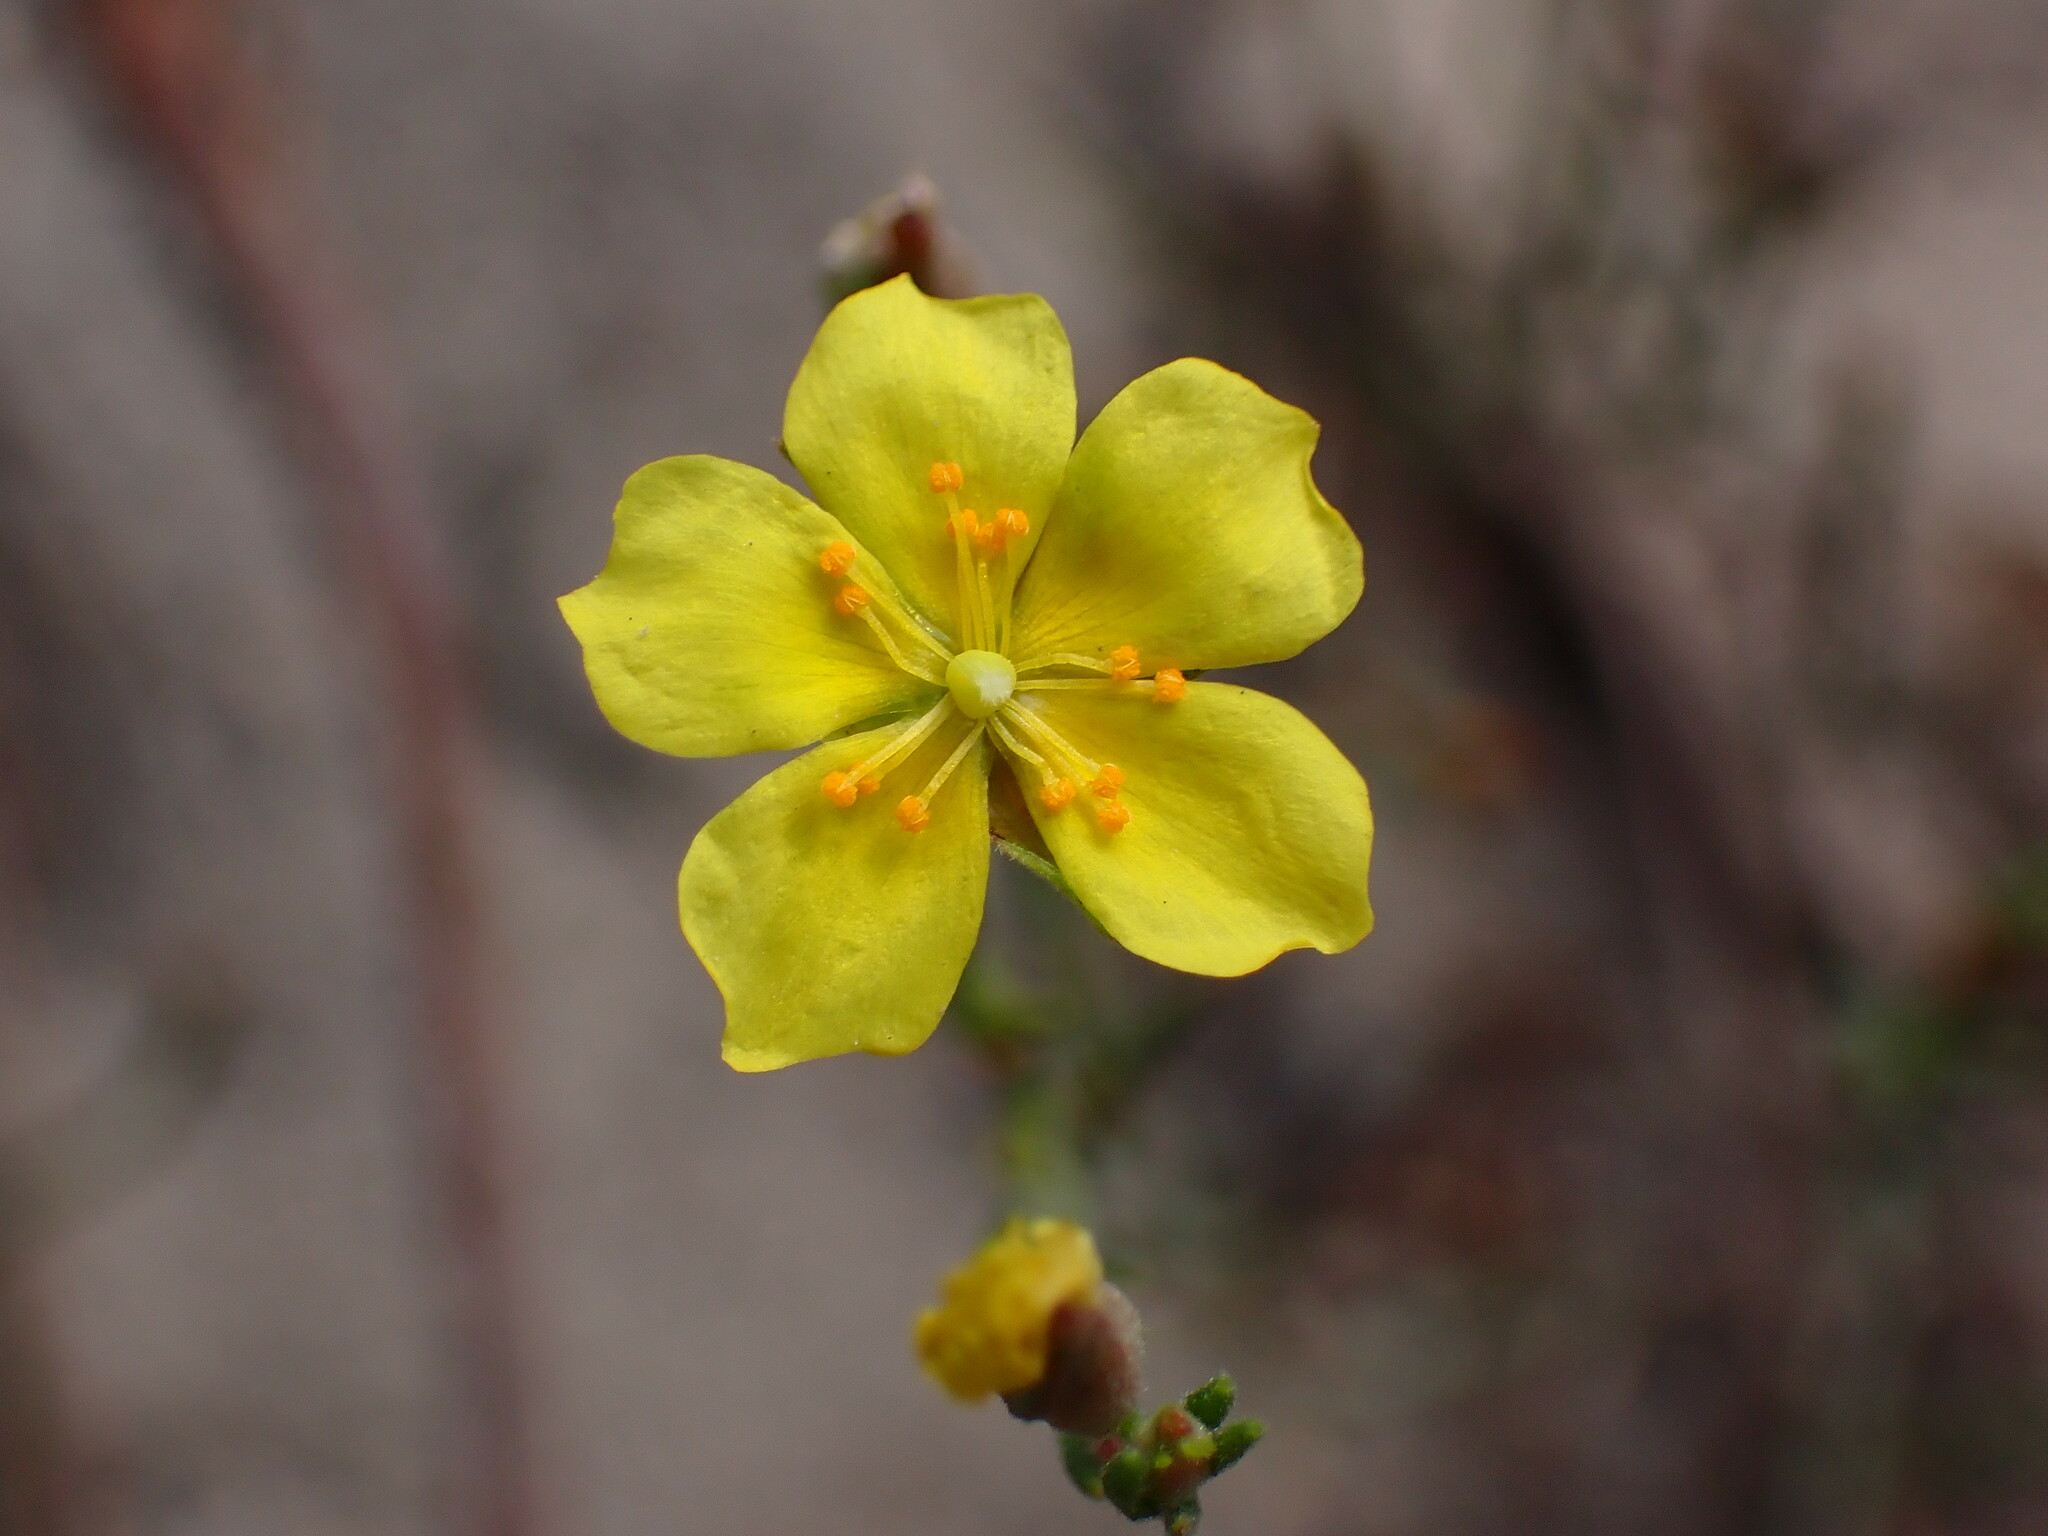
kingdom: Plantae
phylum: Tracheophyta
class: Magnoliopsida
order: Malvales
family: Cistaceae
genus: Crocanthemum
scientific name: Crocanthemum scoparium
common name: Broom-rose
